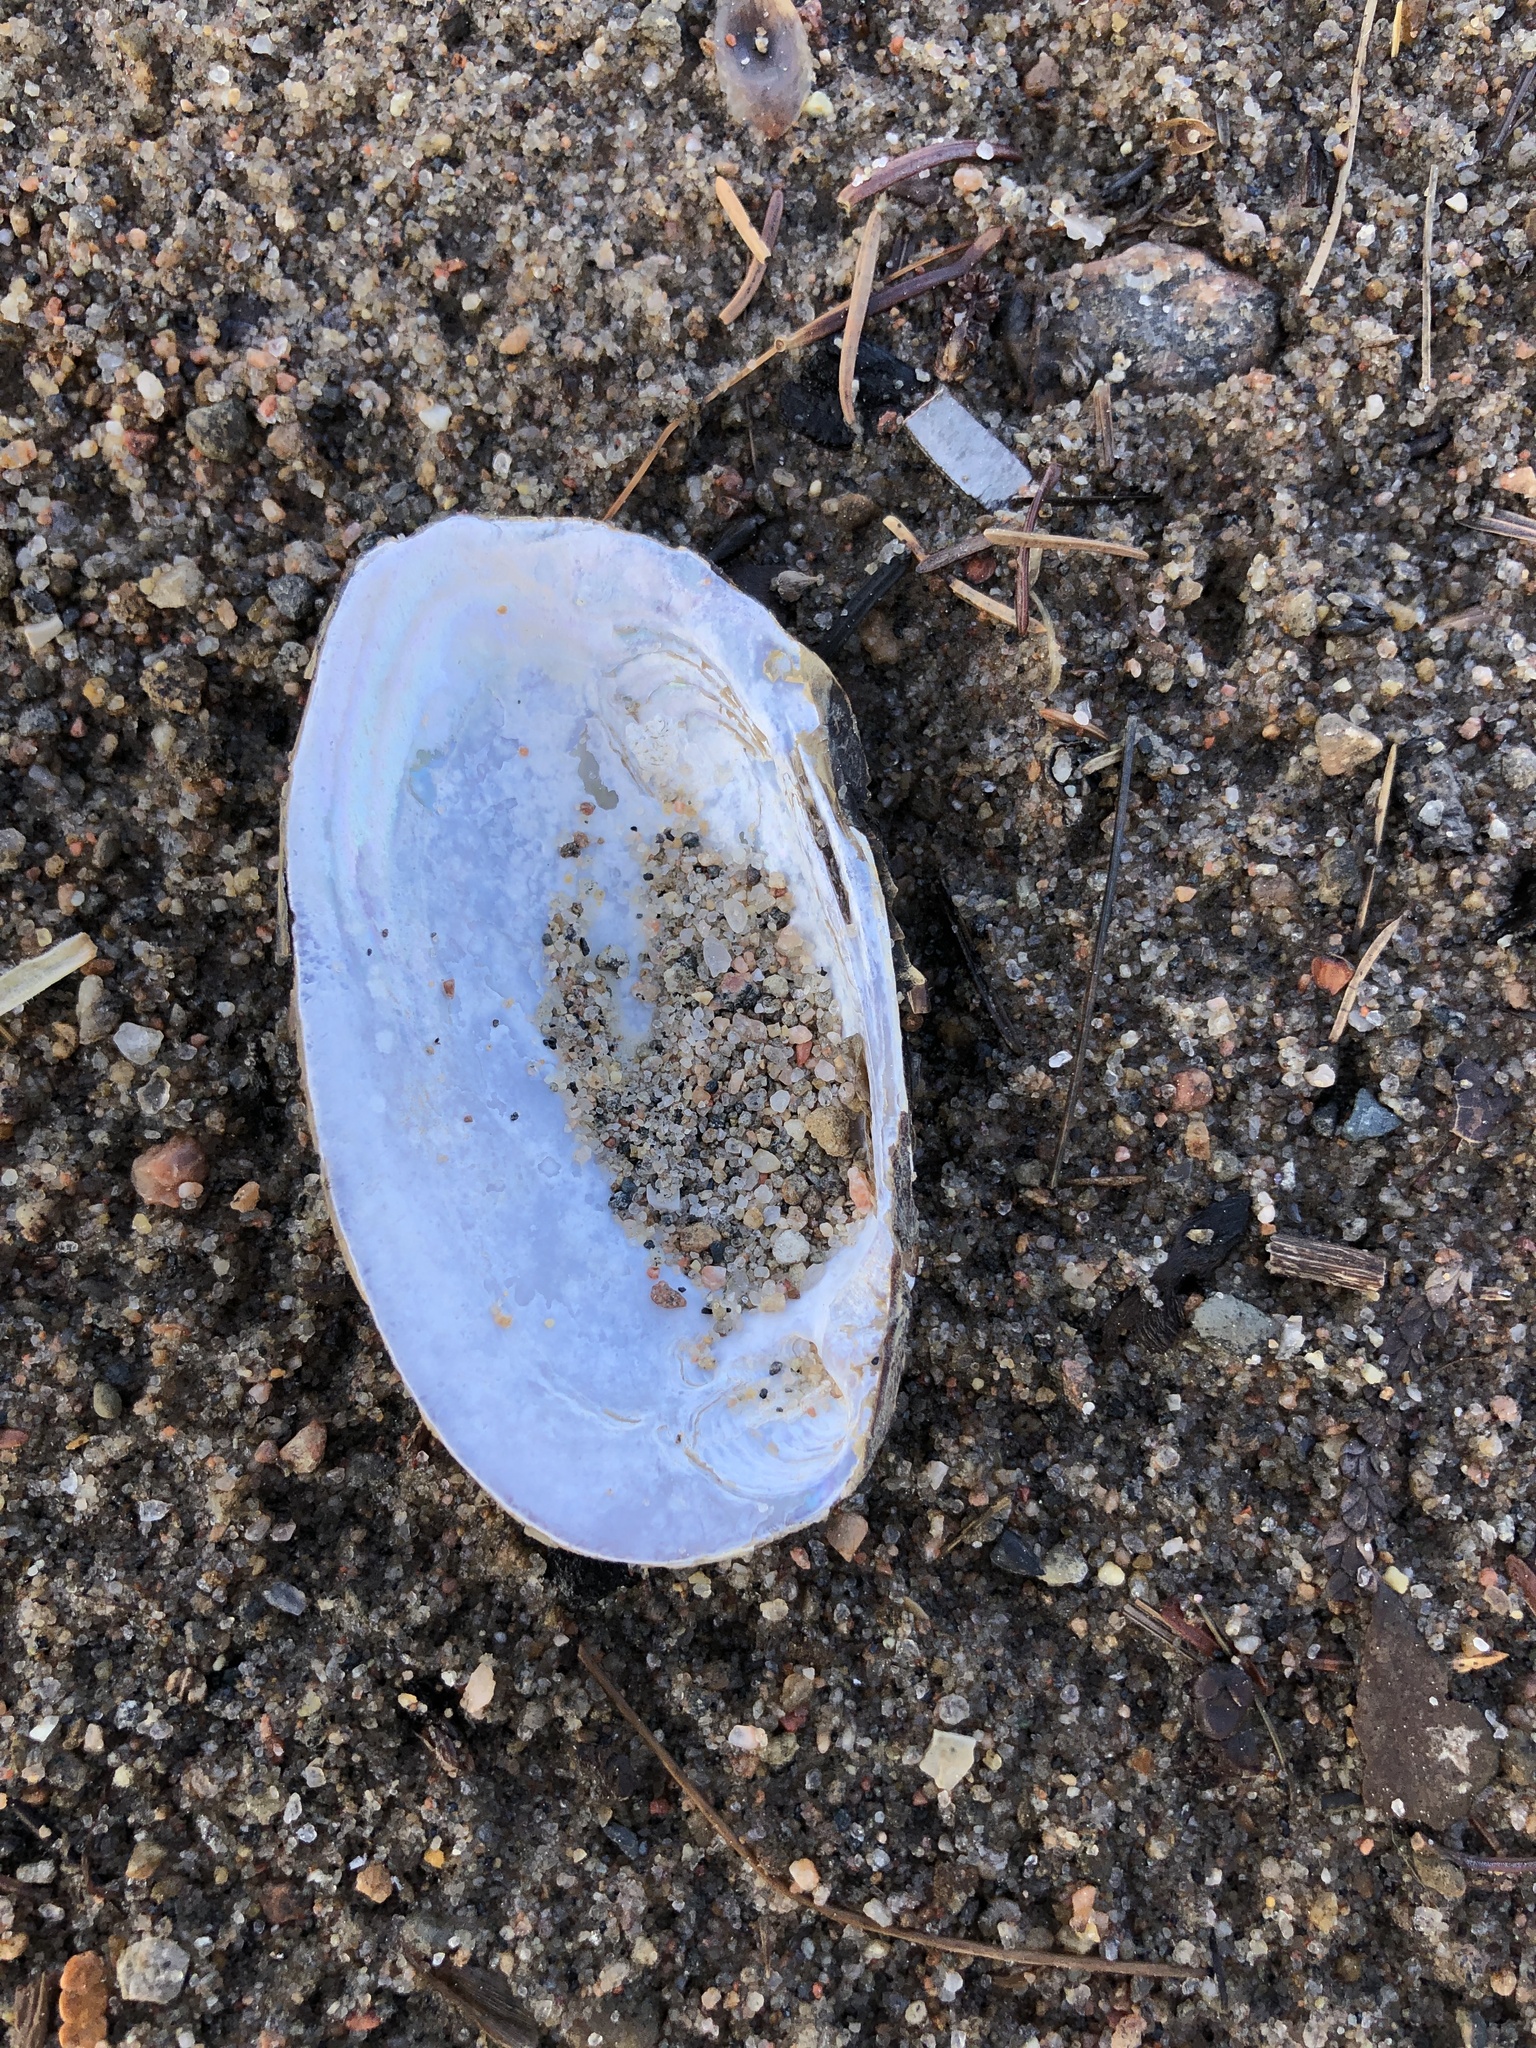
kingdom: Animalia
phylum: Mollusca
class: Bivalvia
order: Unionida
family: Unionidae
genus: Elliptio
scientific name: Elliptio complanata
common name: Eastern elliptio
